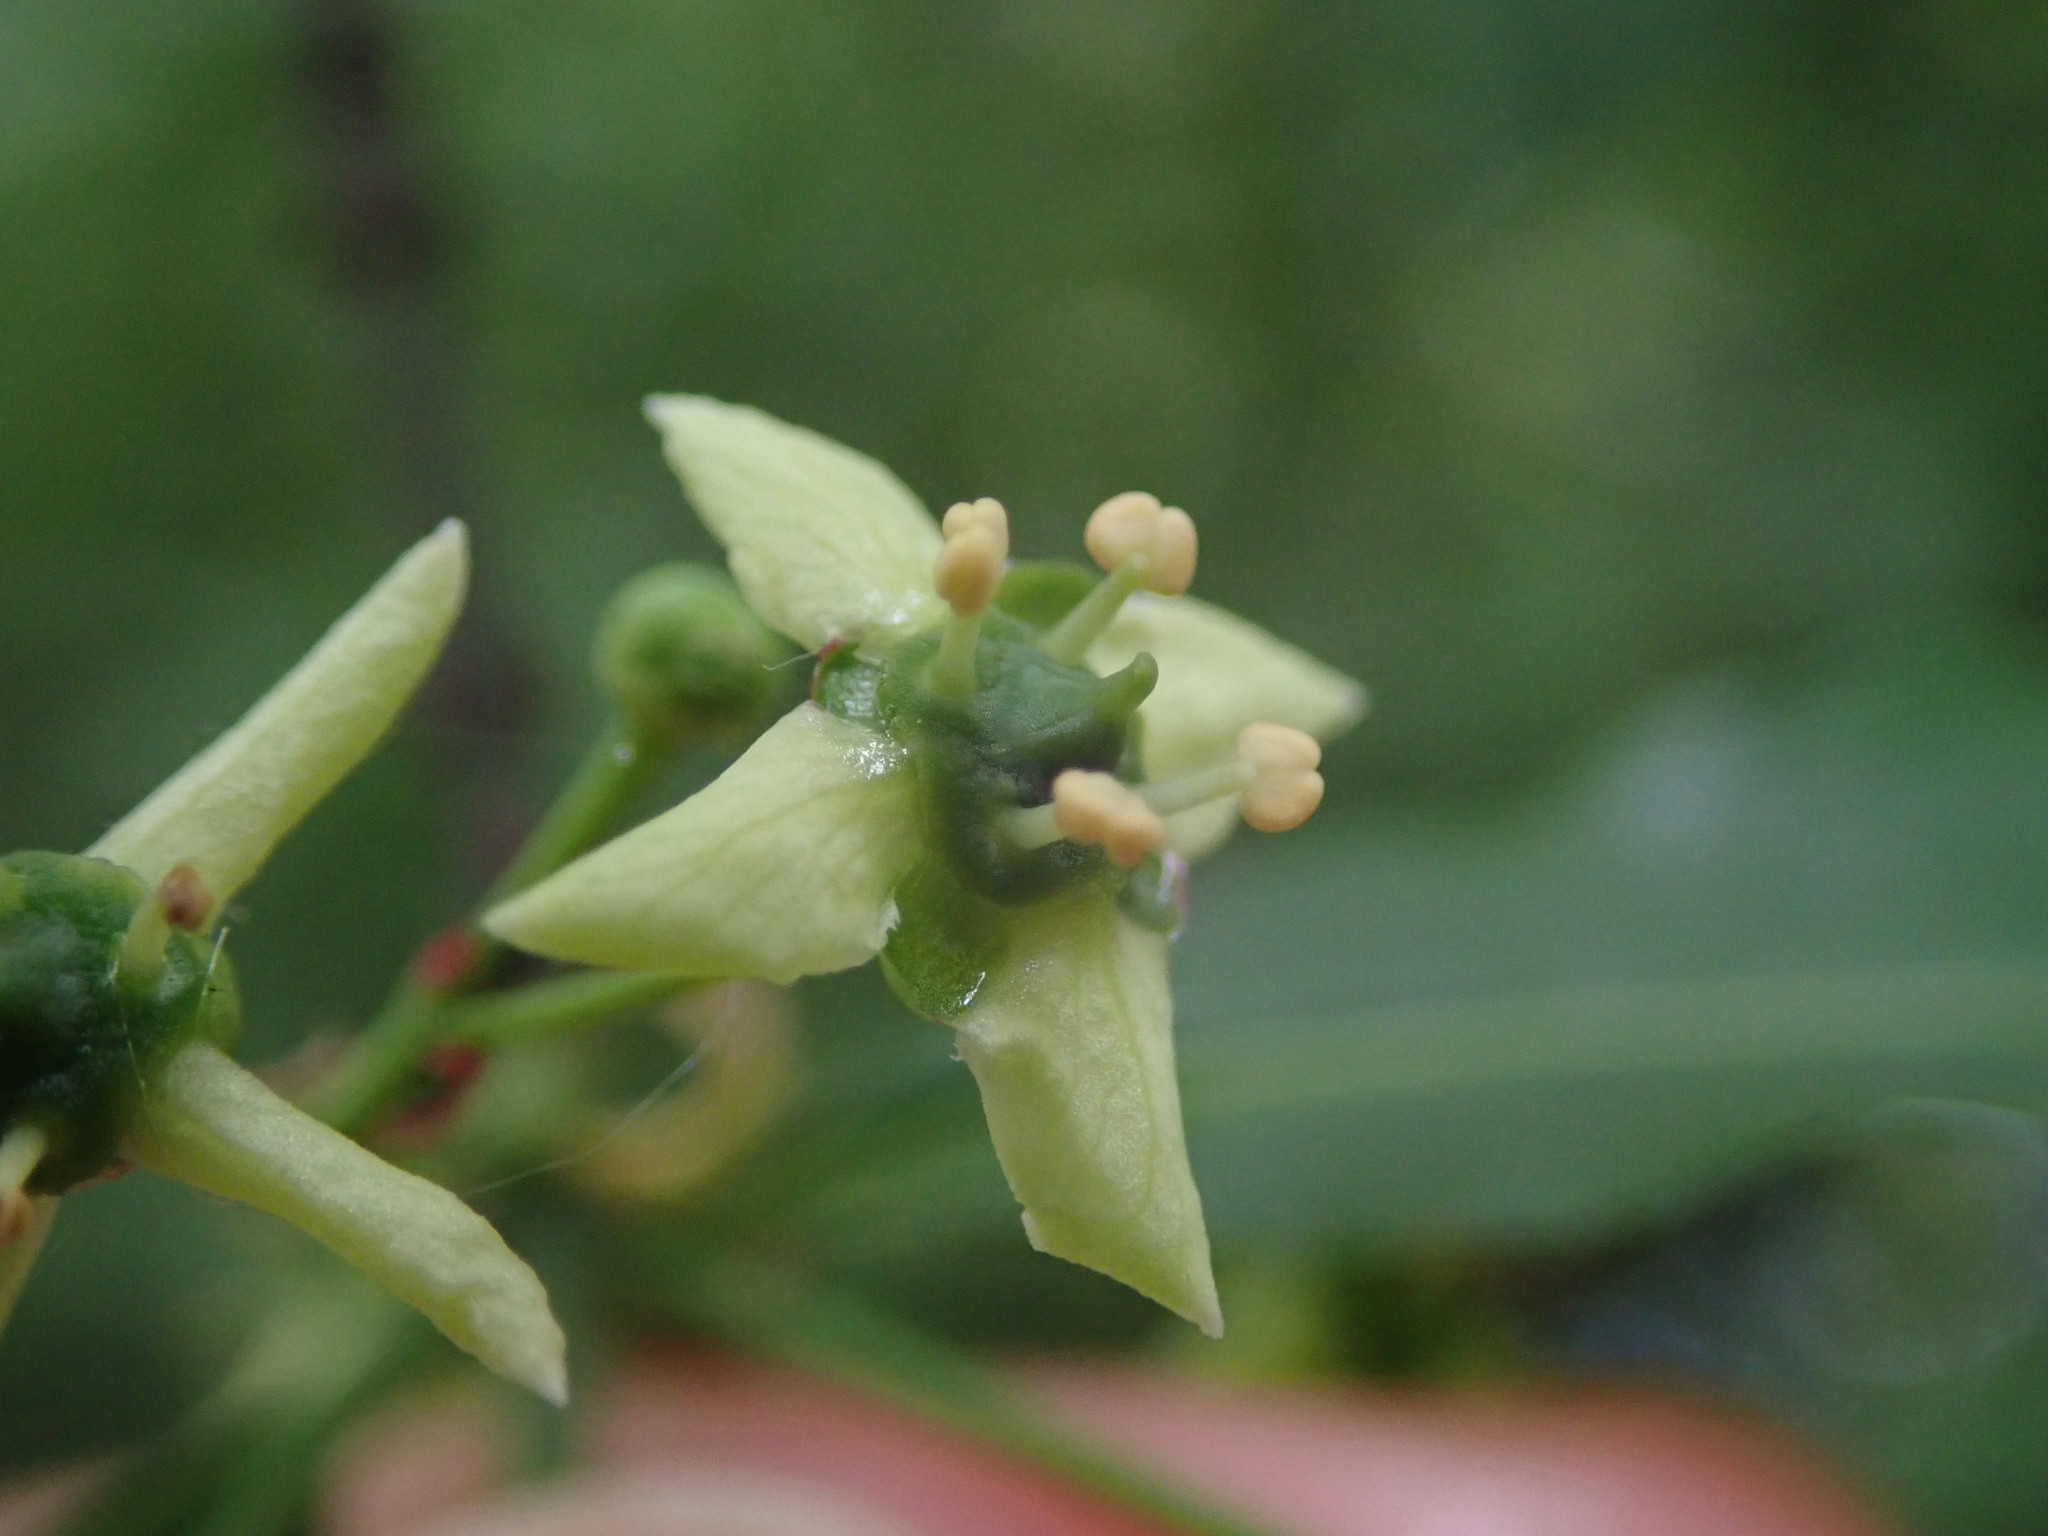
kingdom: Plantae
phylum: Tracheophyta
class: Magnoliopsida
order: Celastrales
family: Celastraceae
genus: Euonymus
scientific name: Euonymus europaeus
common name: Spindle
